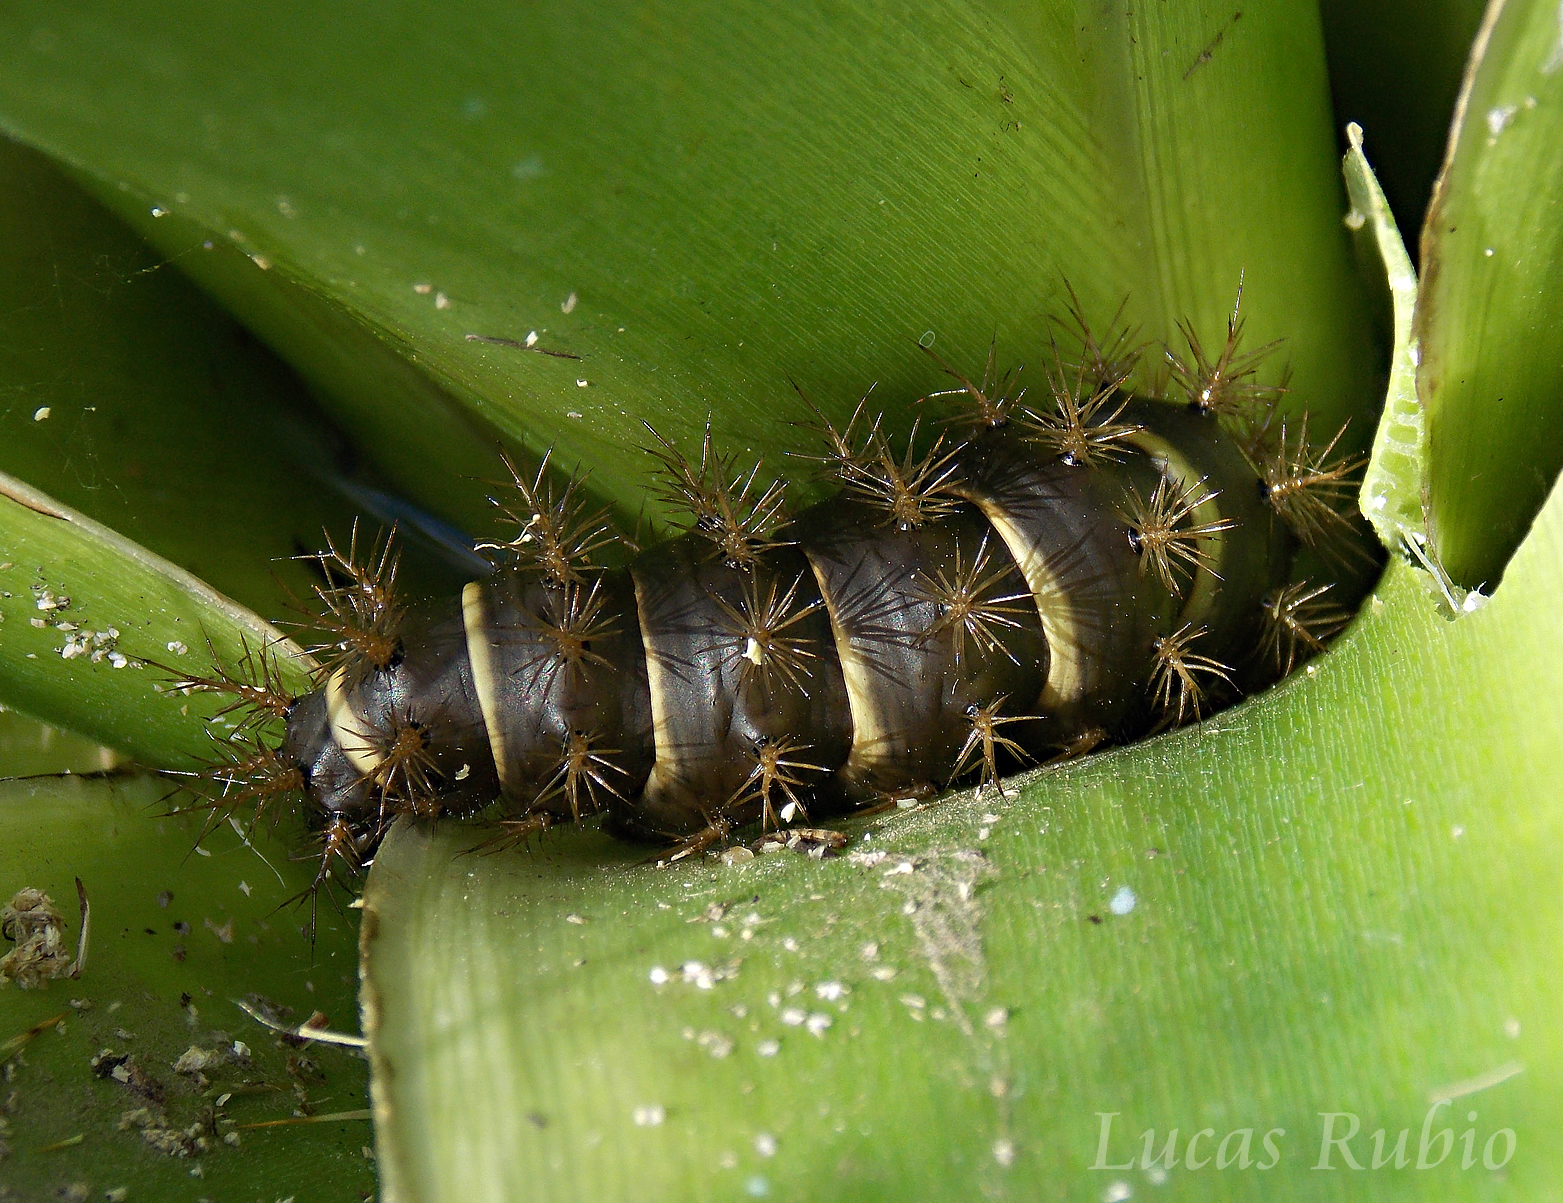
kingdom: Animalia
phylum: Arthropoda
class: Insecta
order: Lepidoptera
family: Saturniidae
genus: Eudyaria
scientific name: Eudyaria zeta
